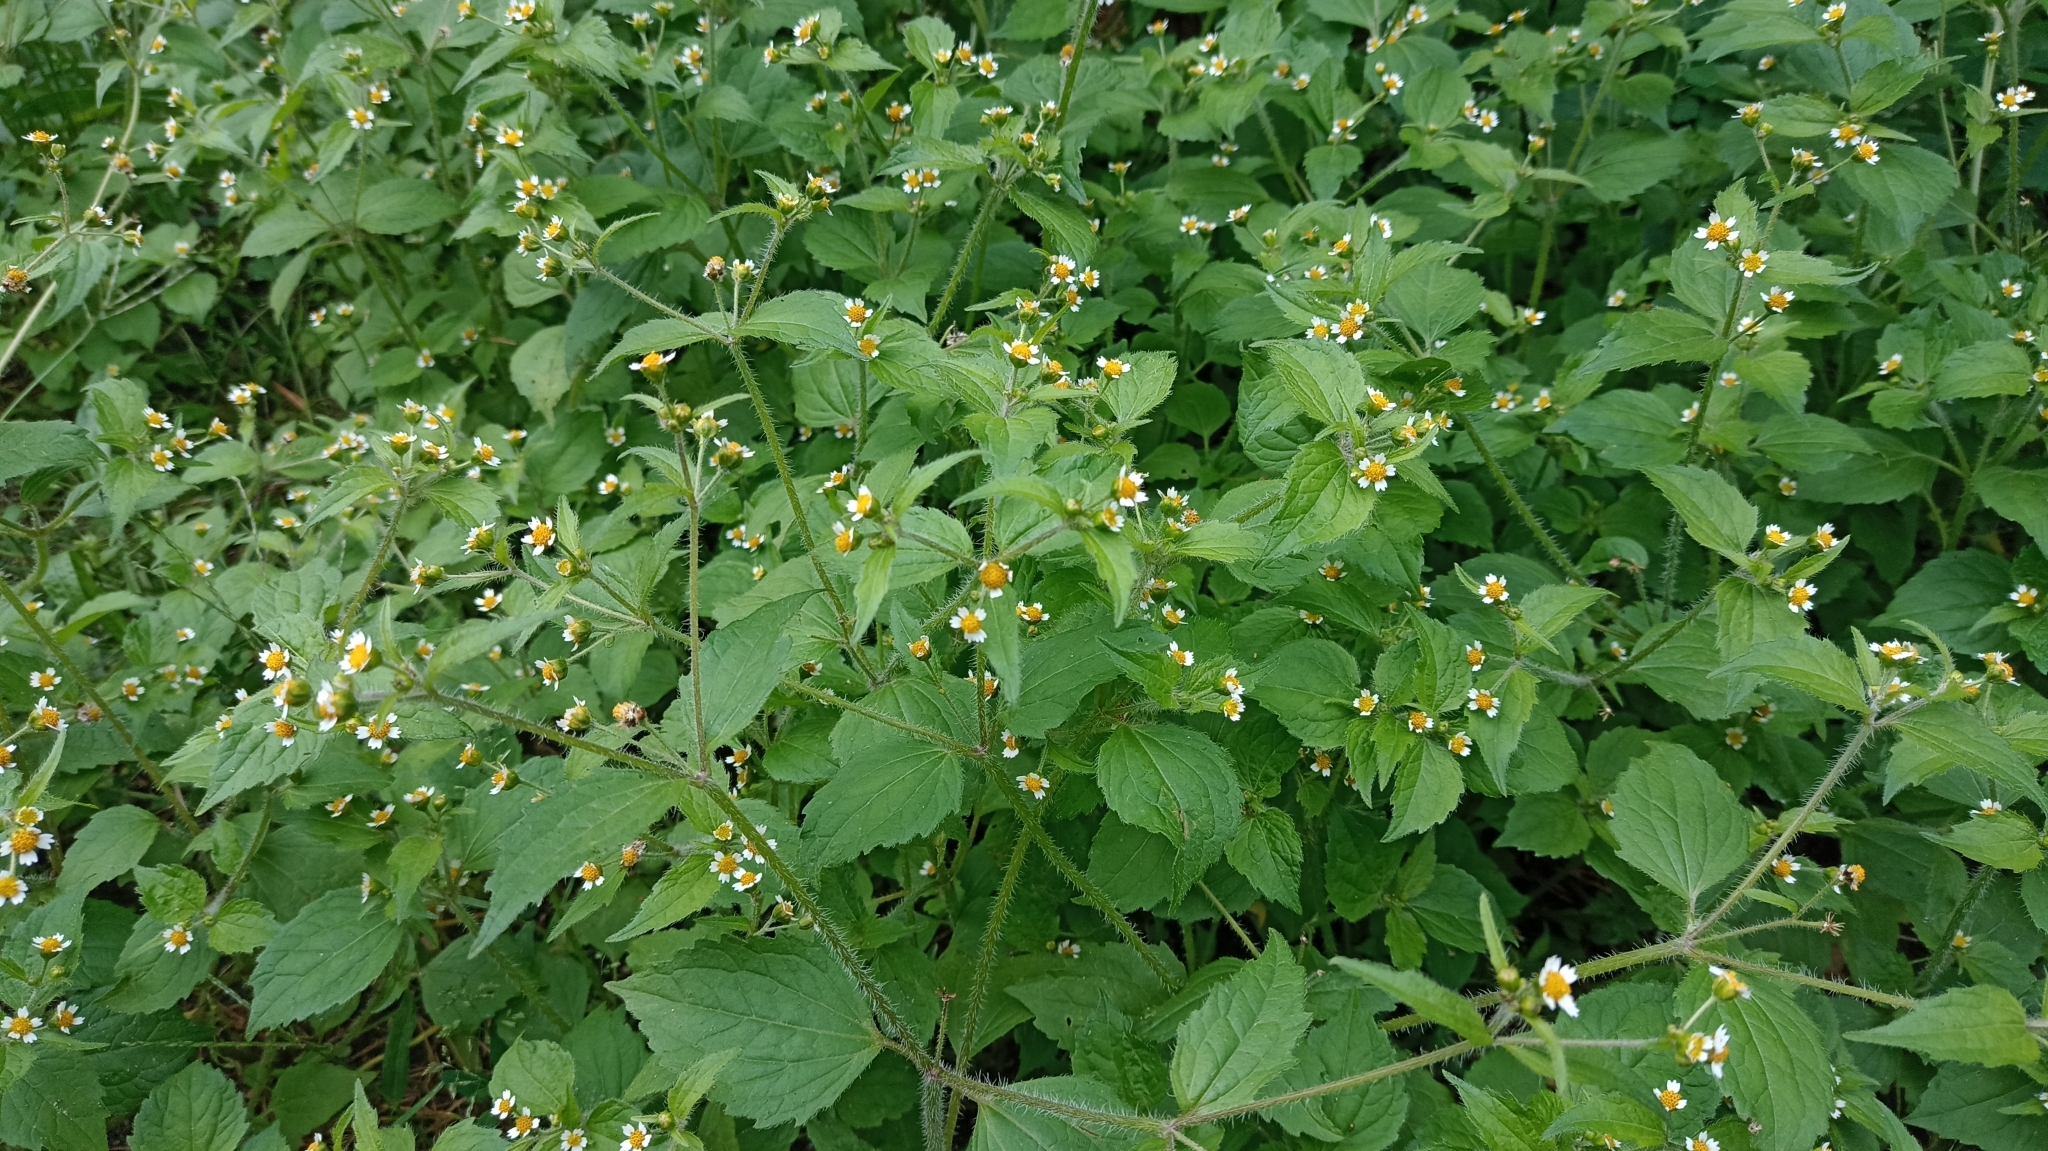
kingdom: Plantae
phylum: Tracheophyta
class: Magnoliopsida
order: Asterales
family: Asteraceae
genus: Galinsoga
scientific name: Galinsoga quadriradiata
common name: Shaggy soldier
